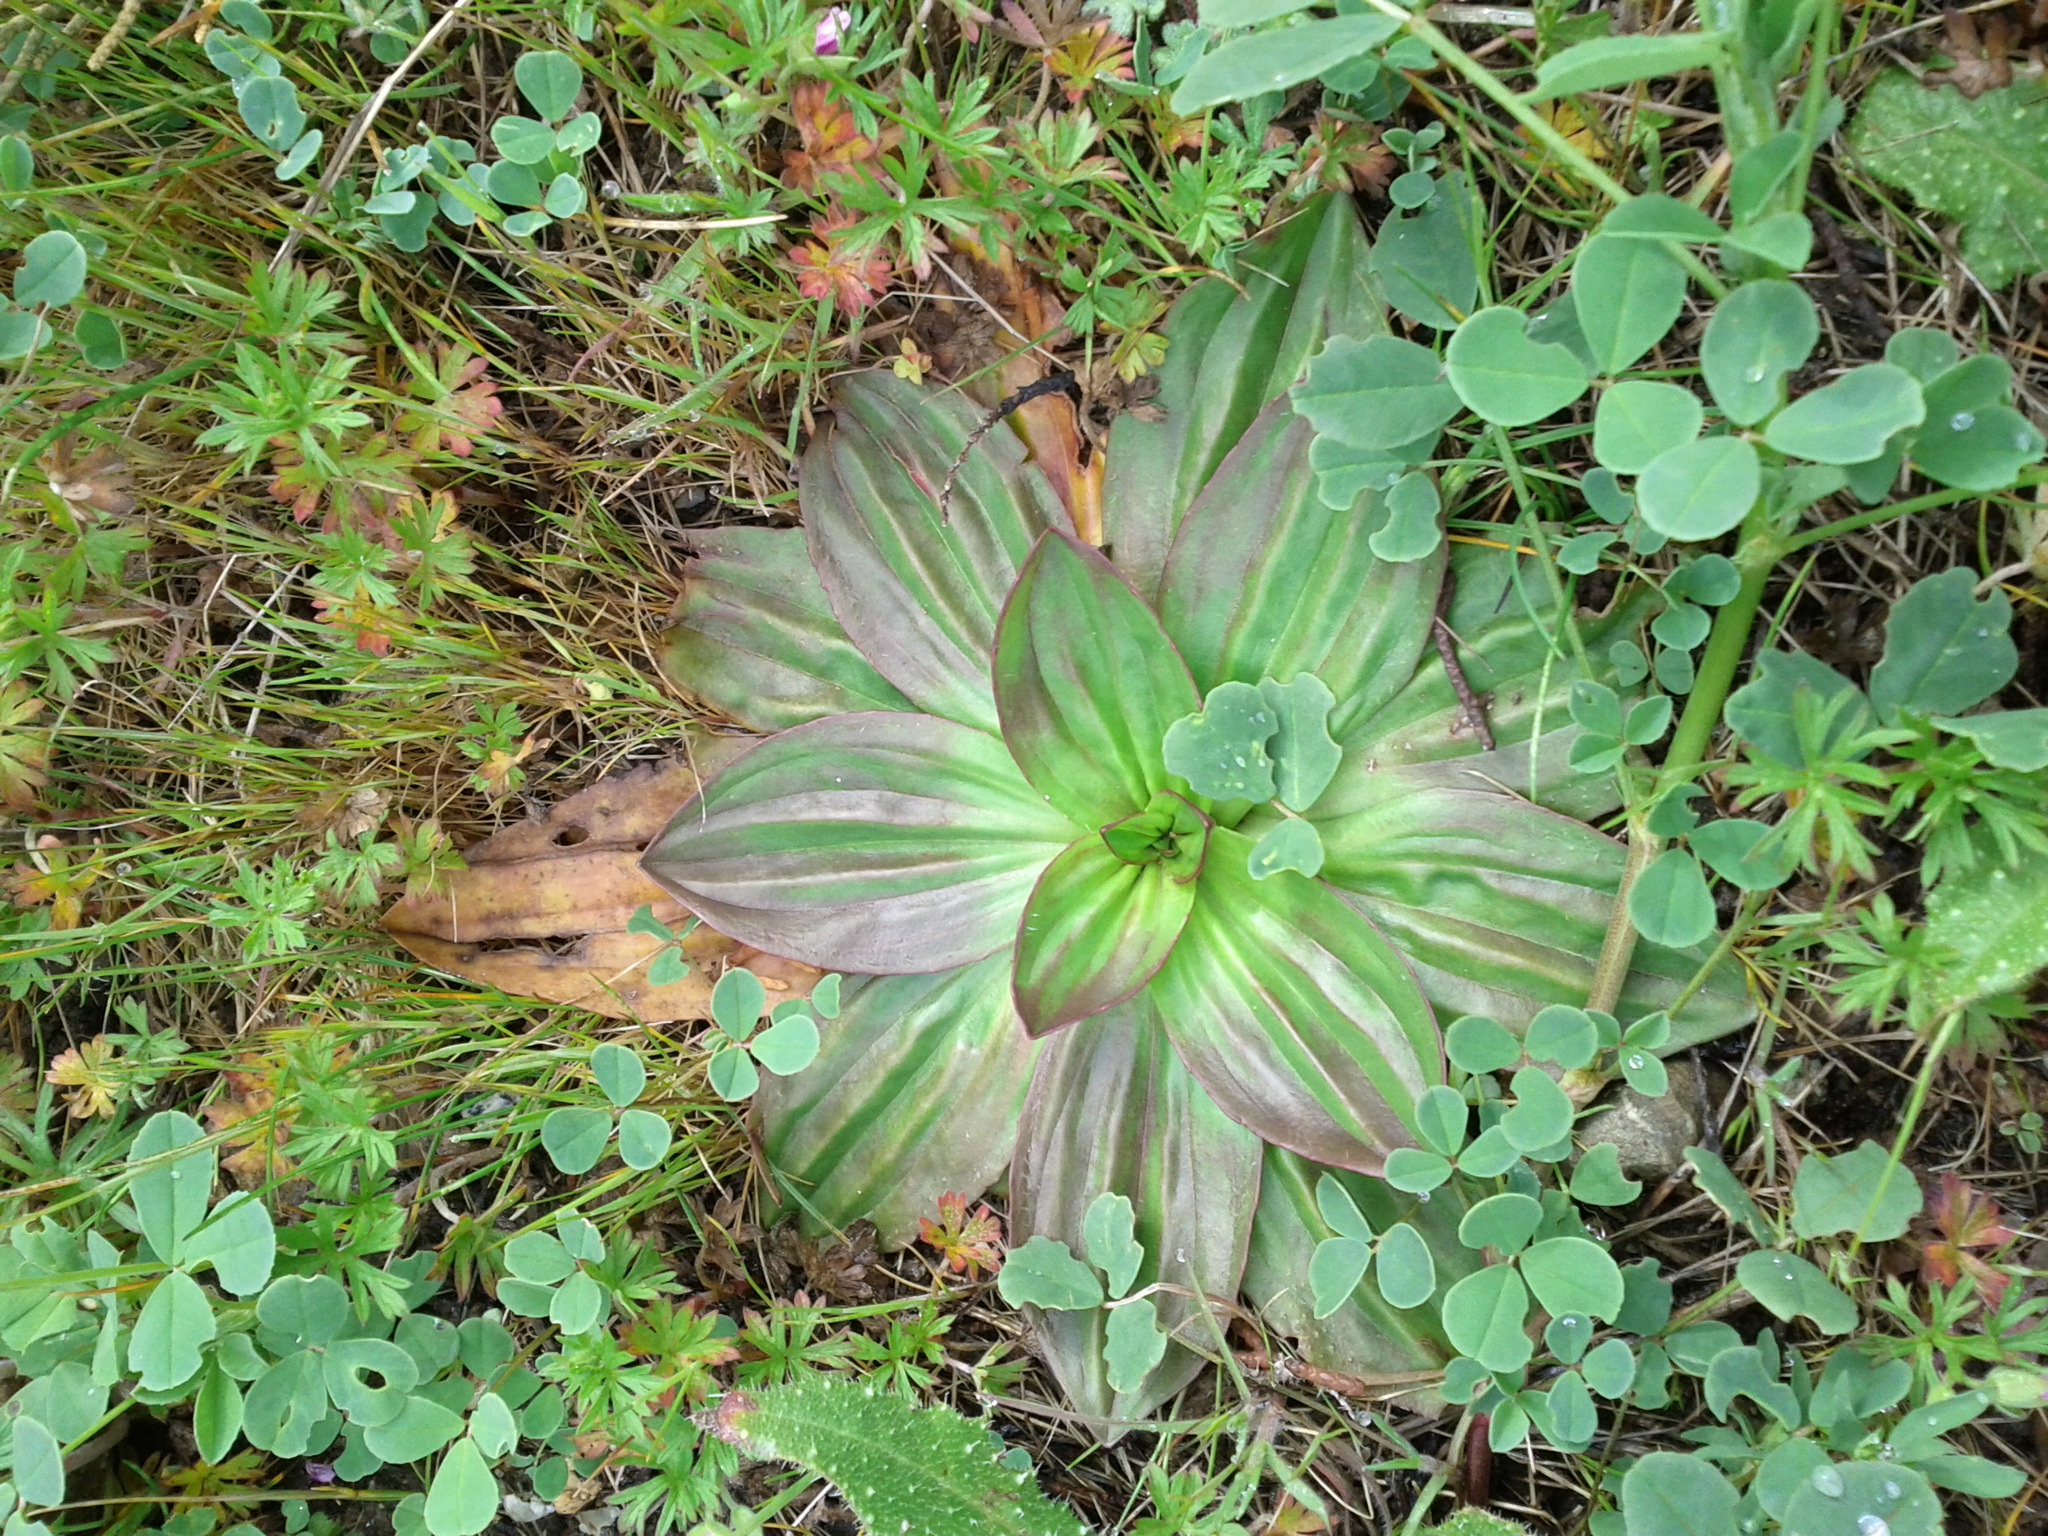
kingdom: Plantae
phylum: Tracheophyta
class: Magnoliopsida
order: Lamiales
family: Plantaginaceae
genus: Plantago
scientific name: Plantago subnuda
